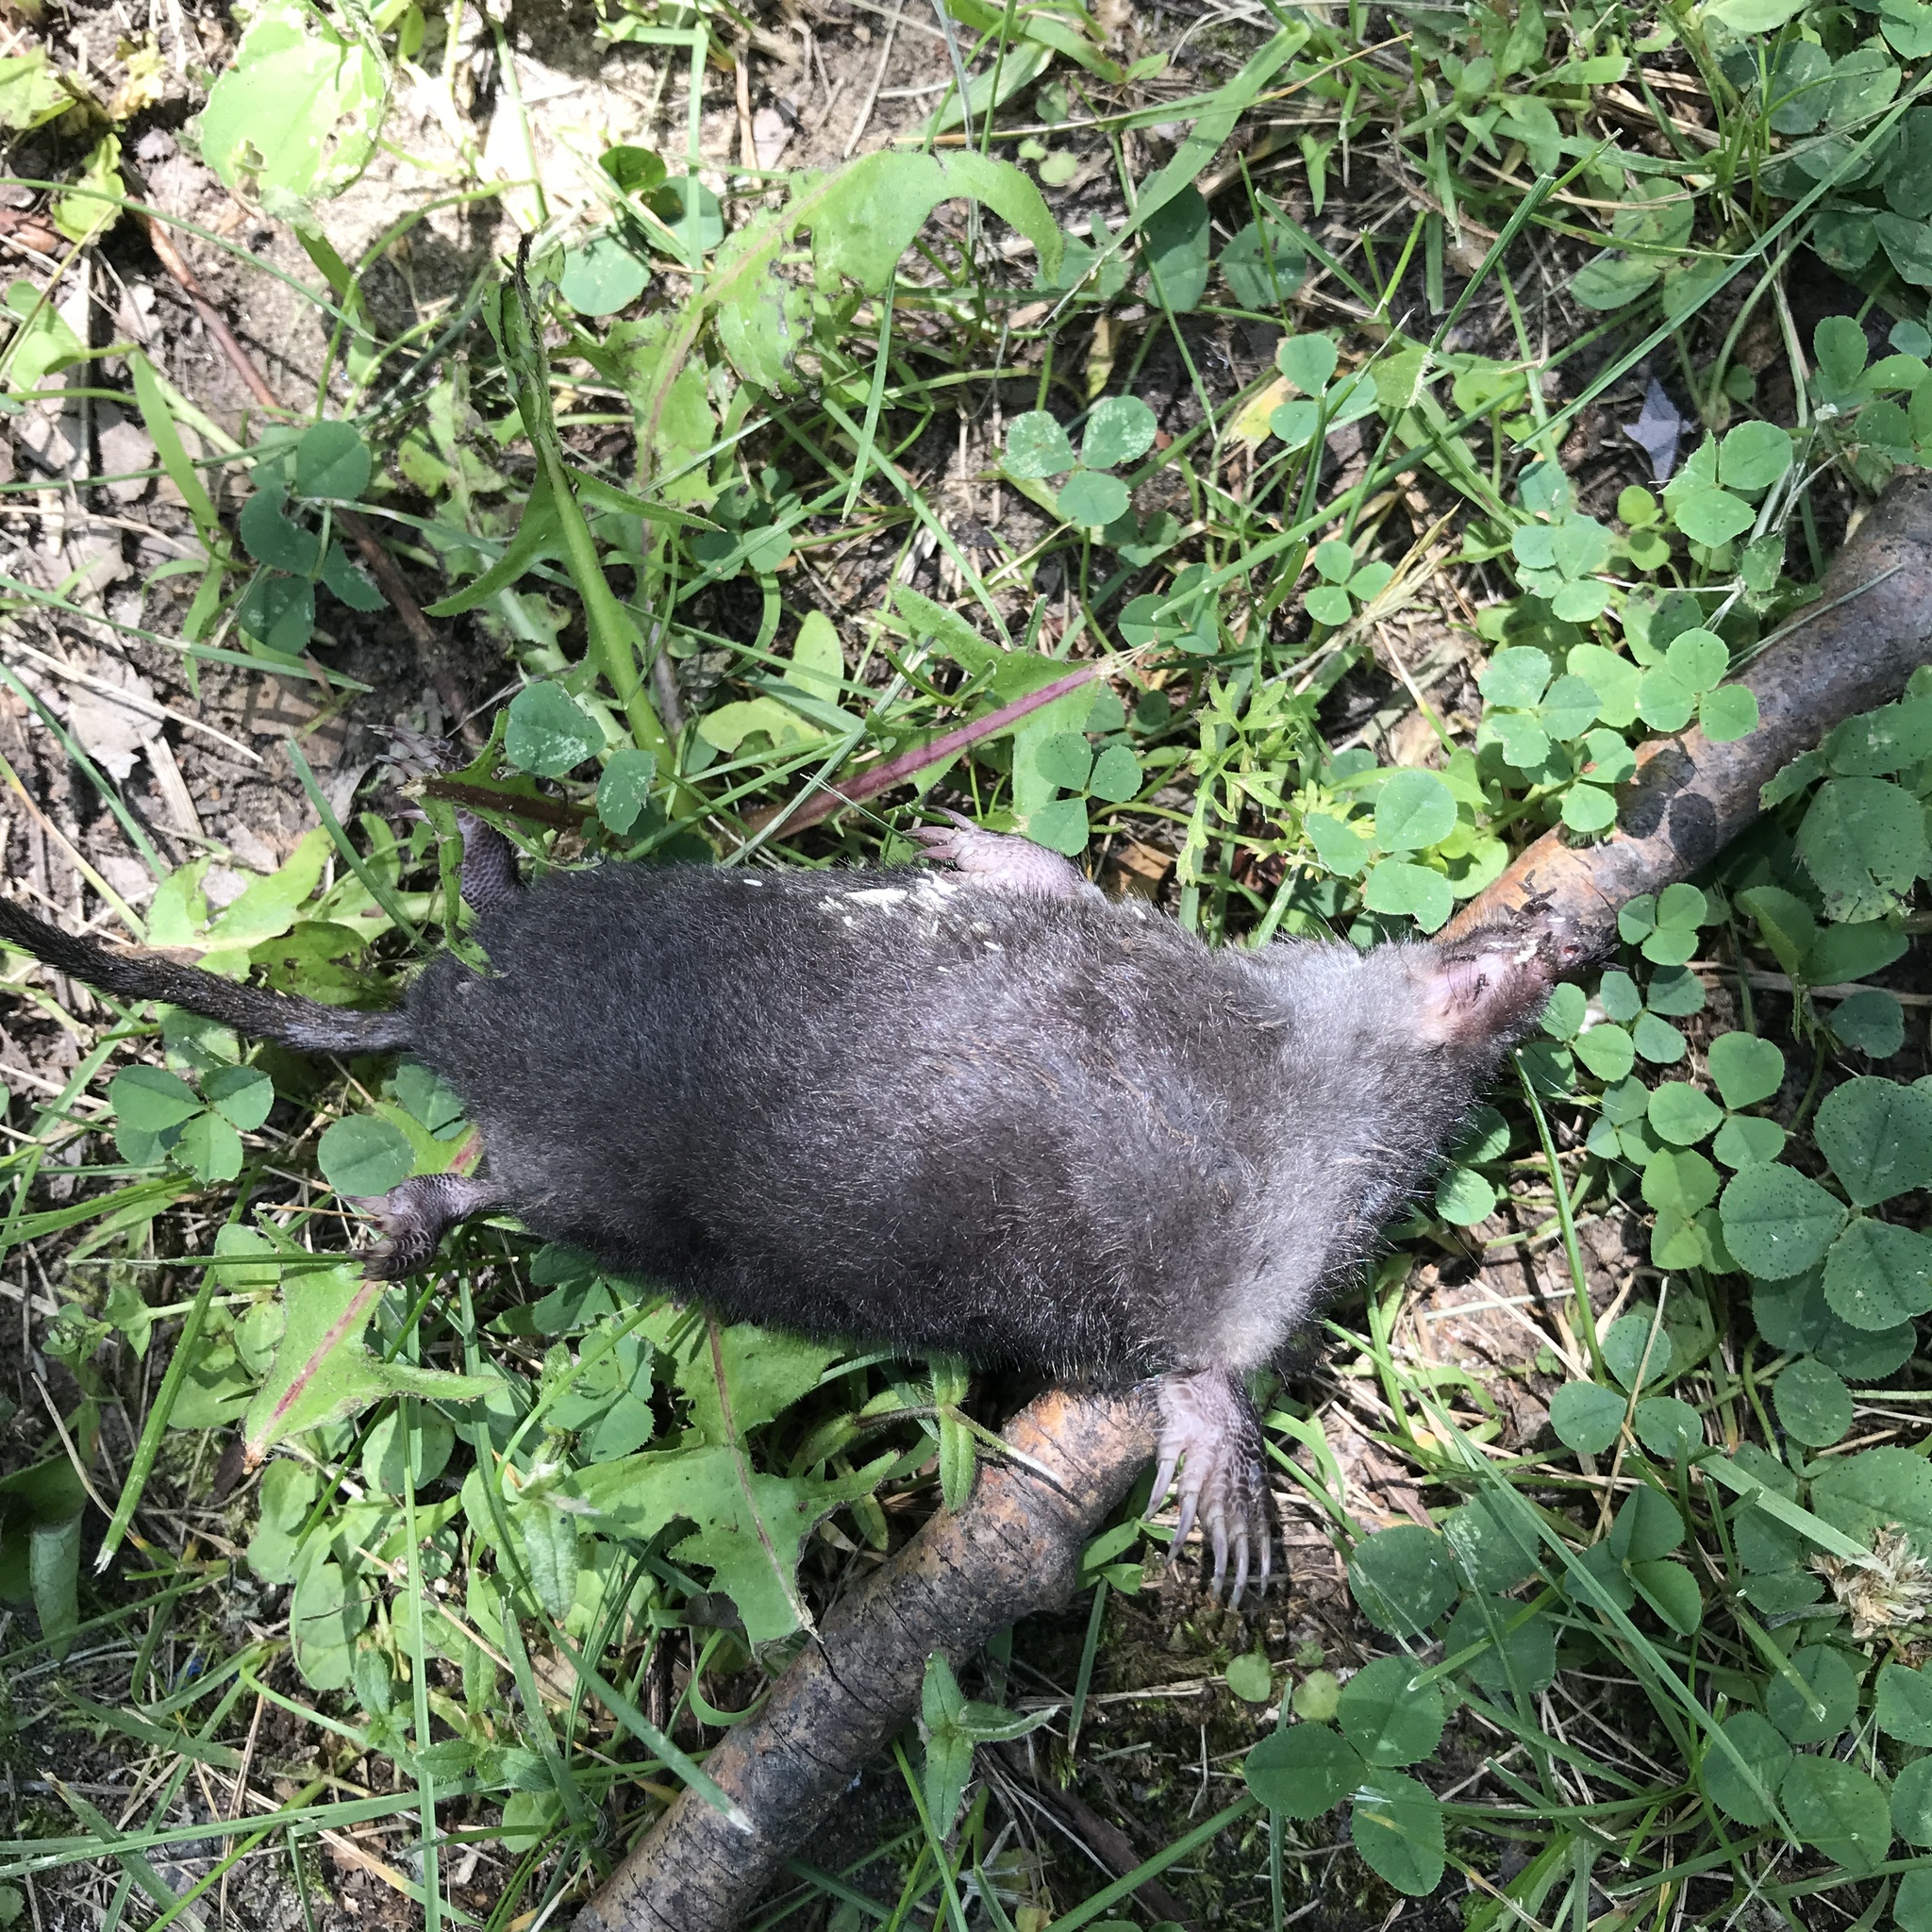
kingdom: Animalia
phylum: Chordata
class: Mammalia
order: Soricomorpha
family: Talpidae
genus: Condylura
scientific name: Condylura cristata
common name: Star-nosed mole
